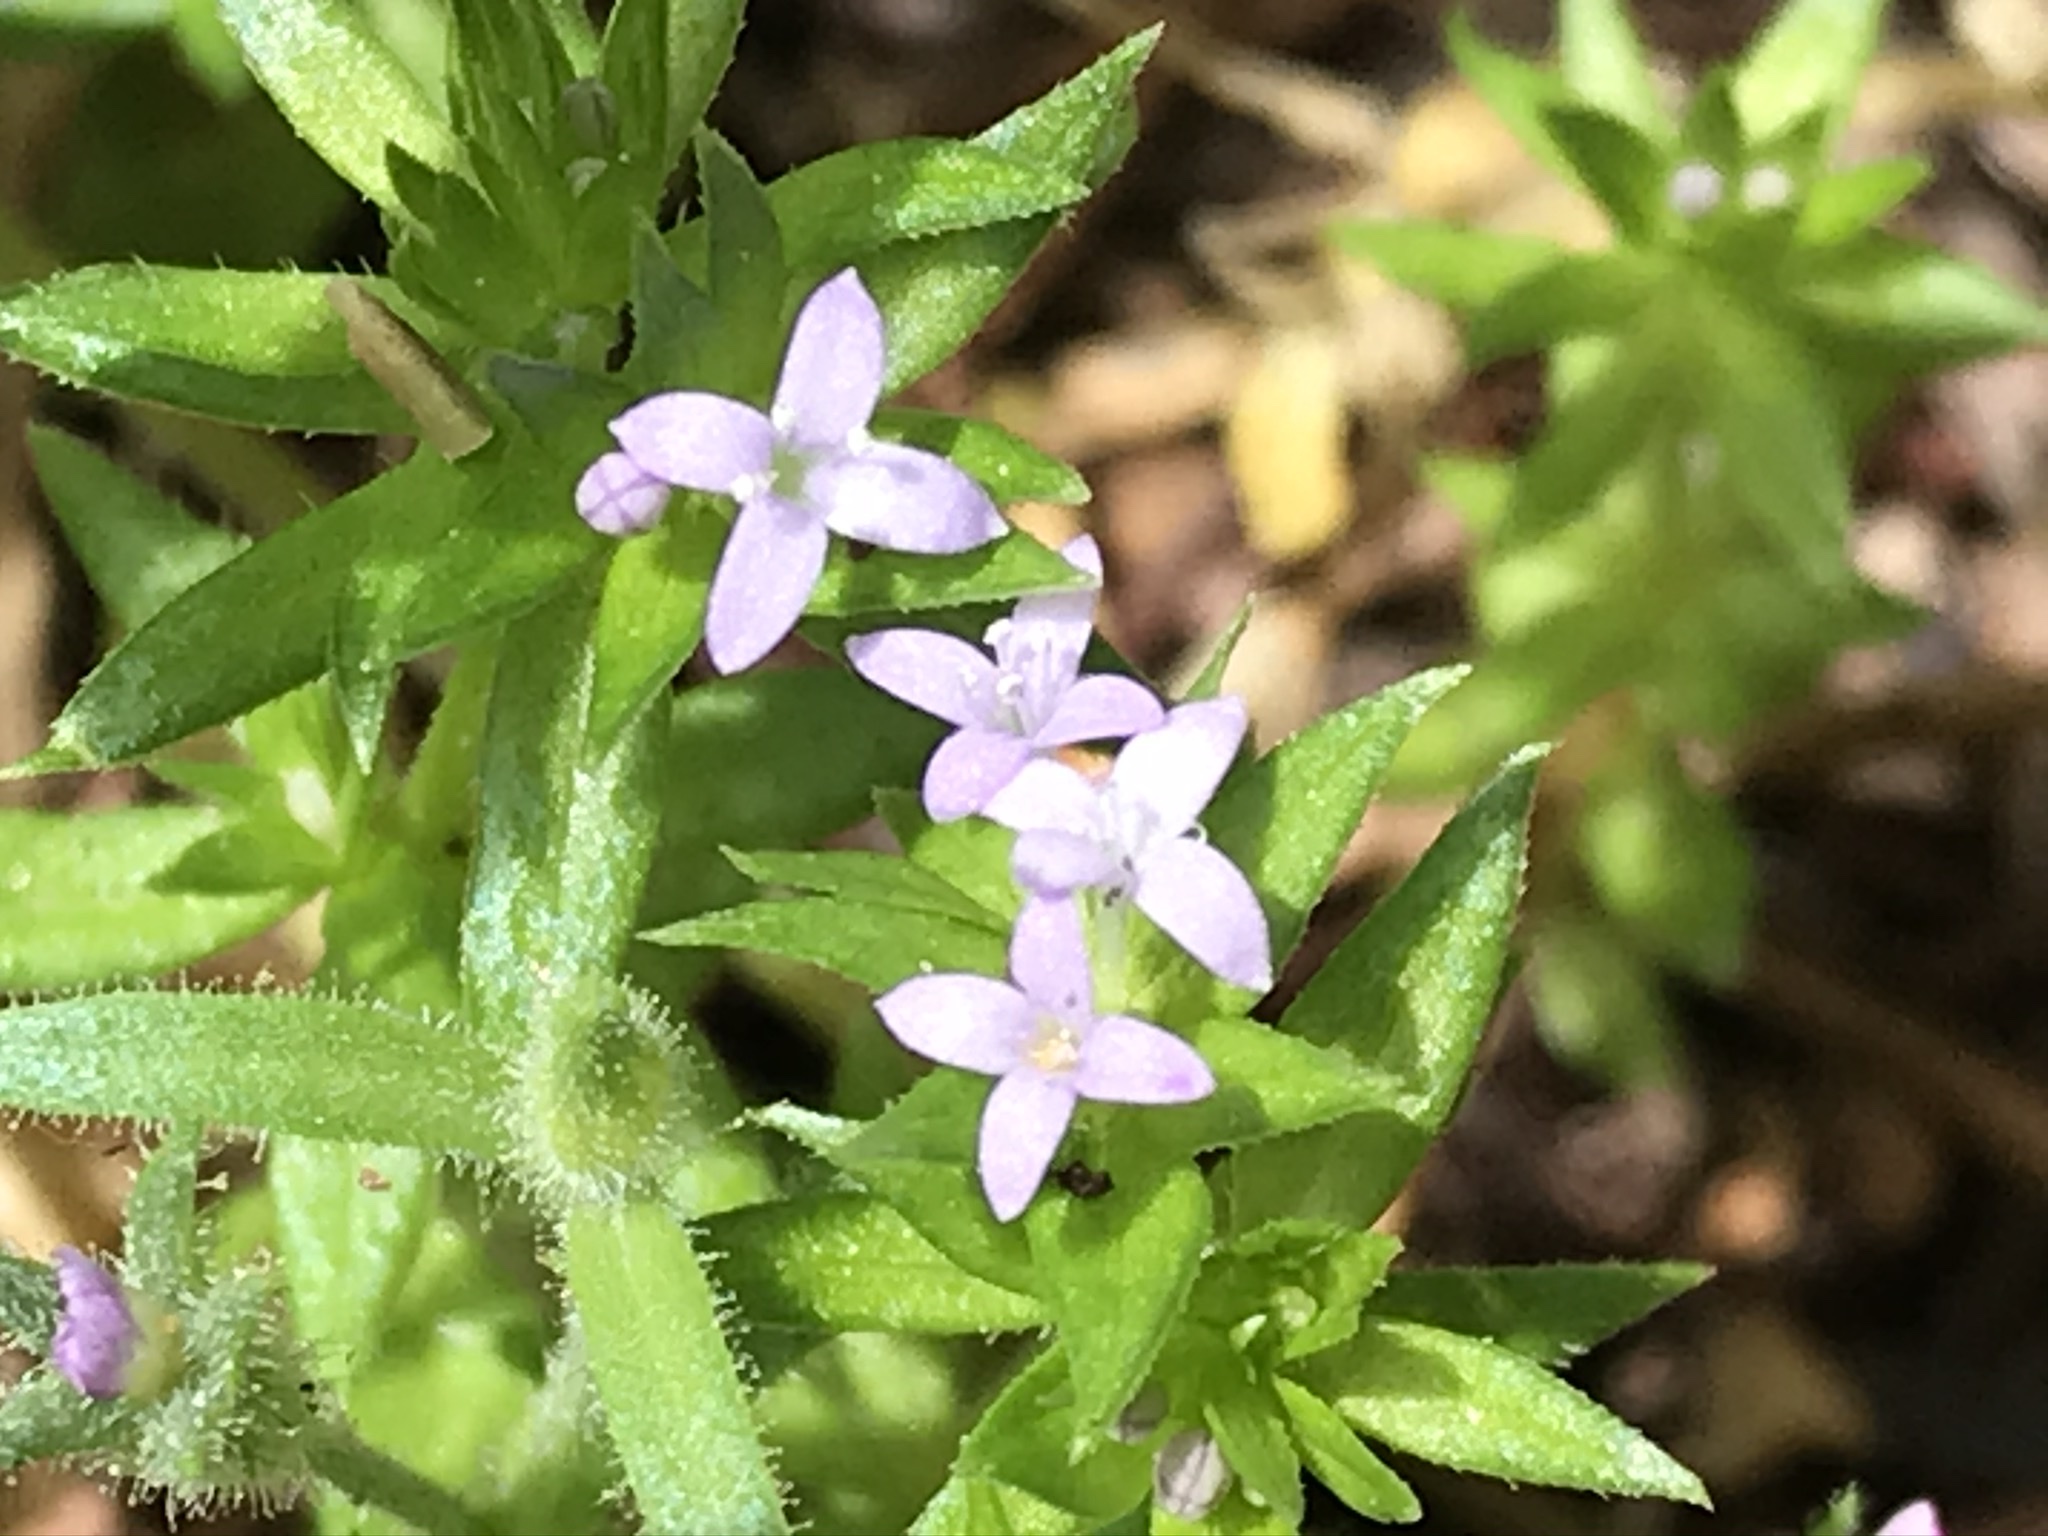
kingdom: Plantae
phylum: Tracheophyta
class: Magnoliopsida
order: Gentianales
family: Rubiaceae
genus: Sherardia
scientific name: Sherardia arvensis
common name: Field madder
